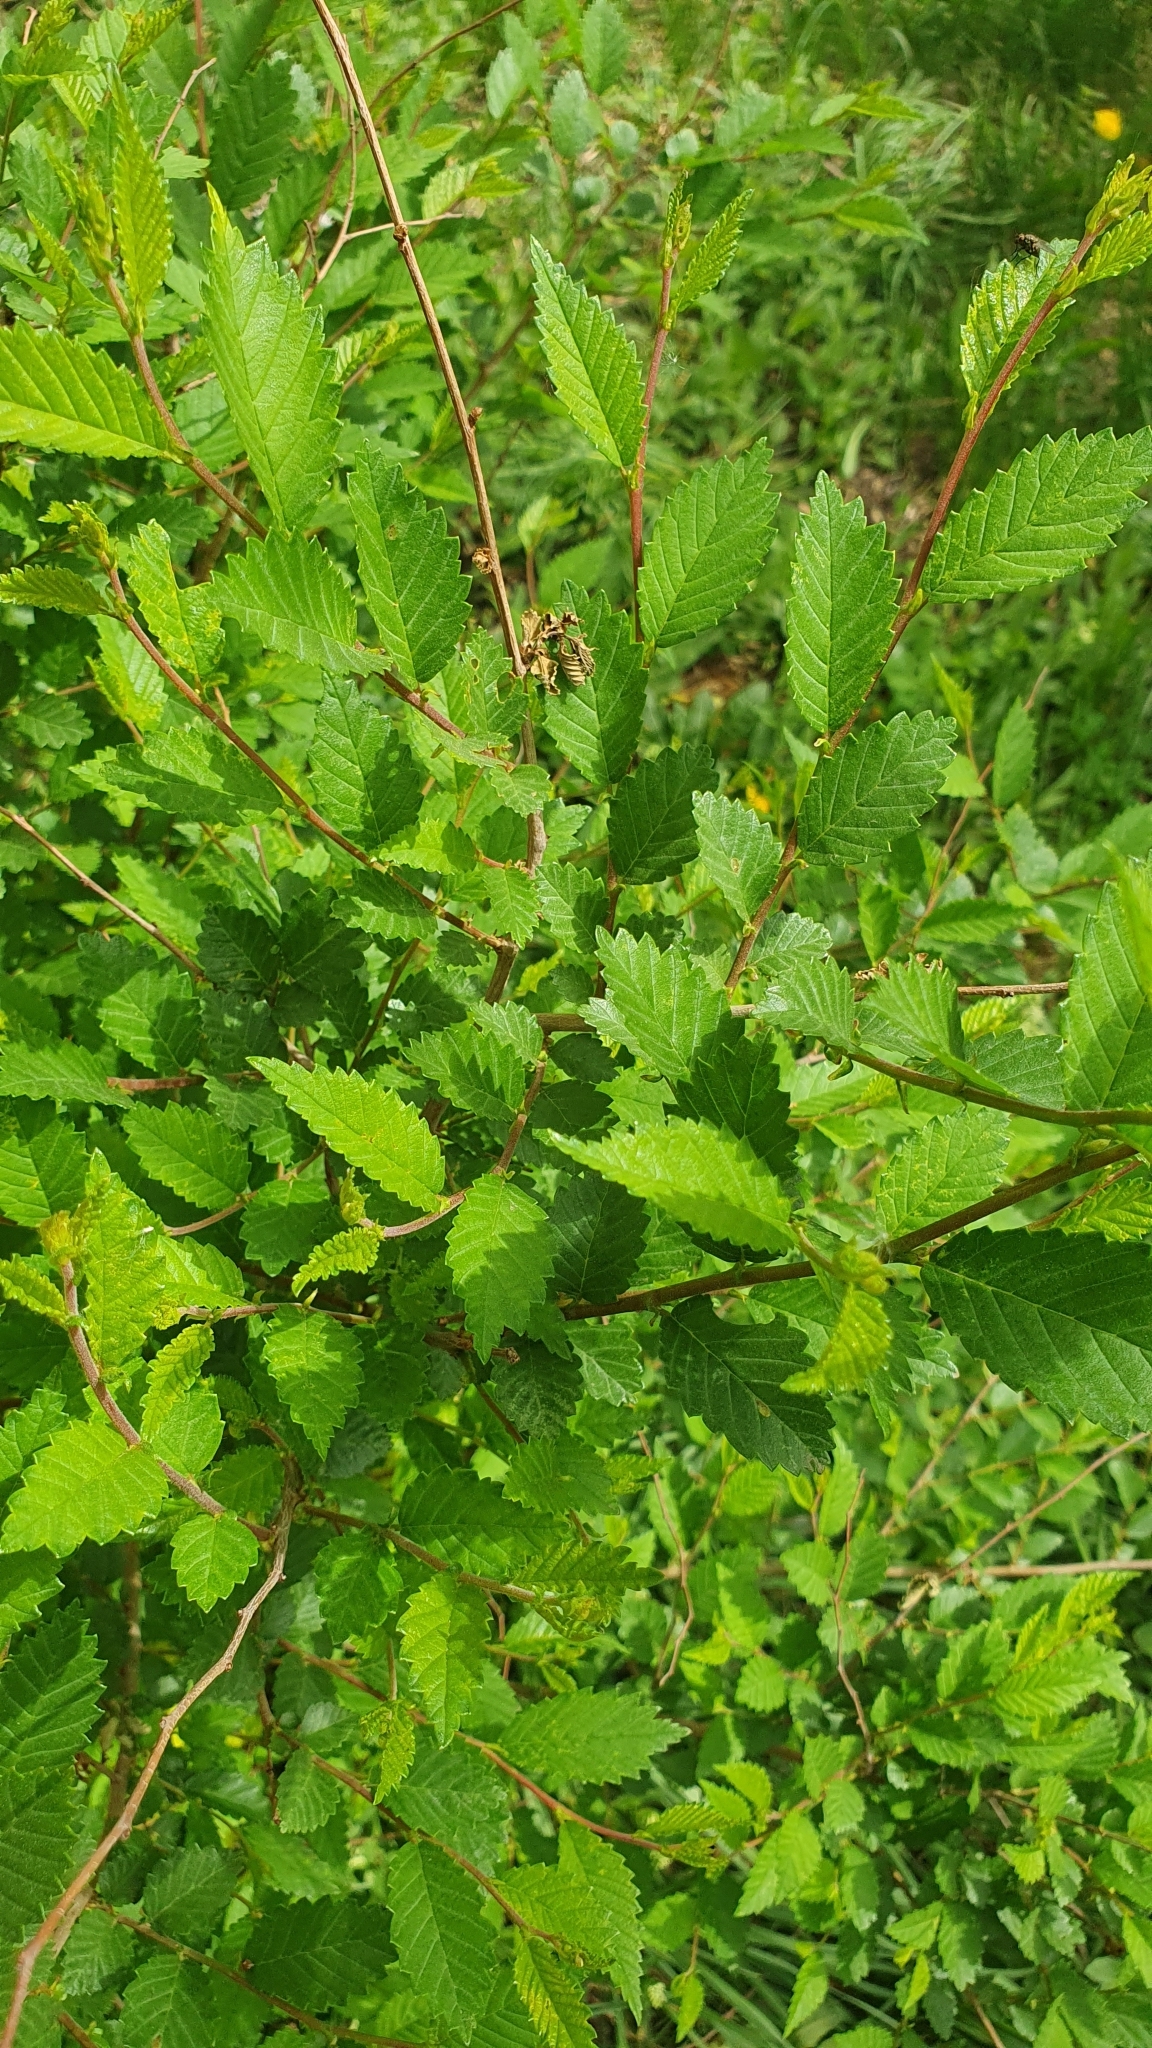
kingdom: Plantae
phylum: Tracheophyta
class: Magnoliopsida
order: Rosales
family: Ulmaceae
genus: Ulmus
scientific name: Ulmus pumila
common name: Siberian elm
